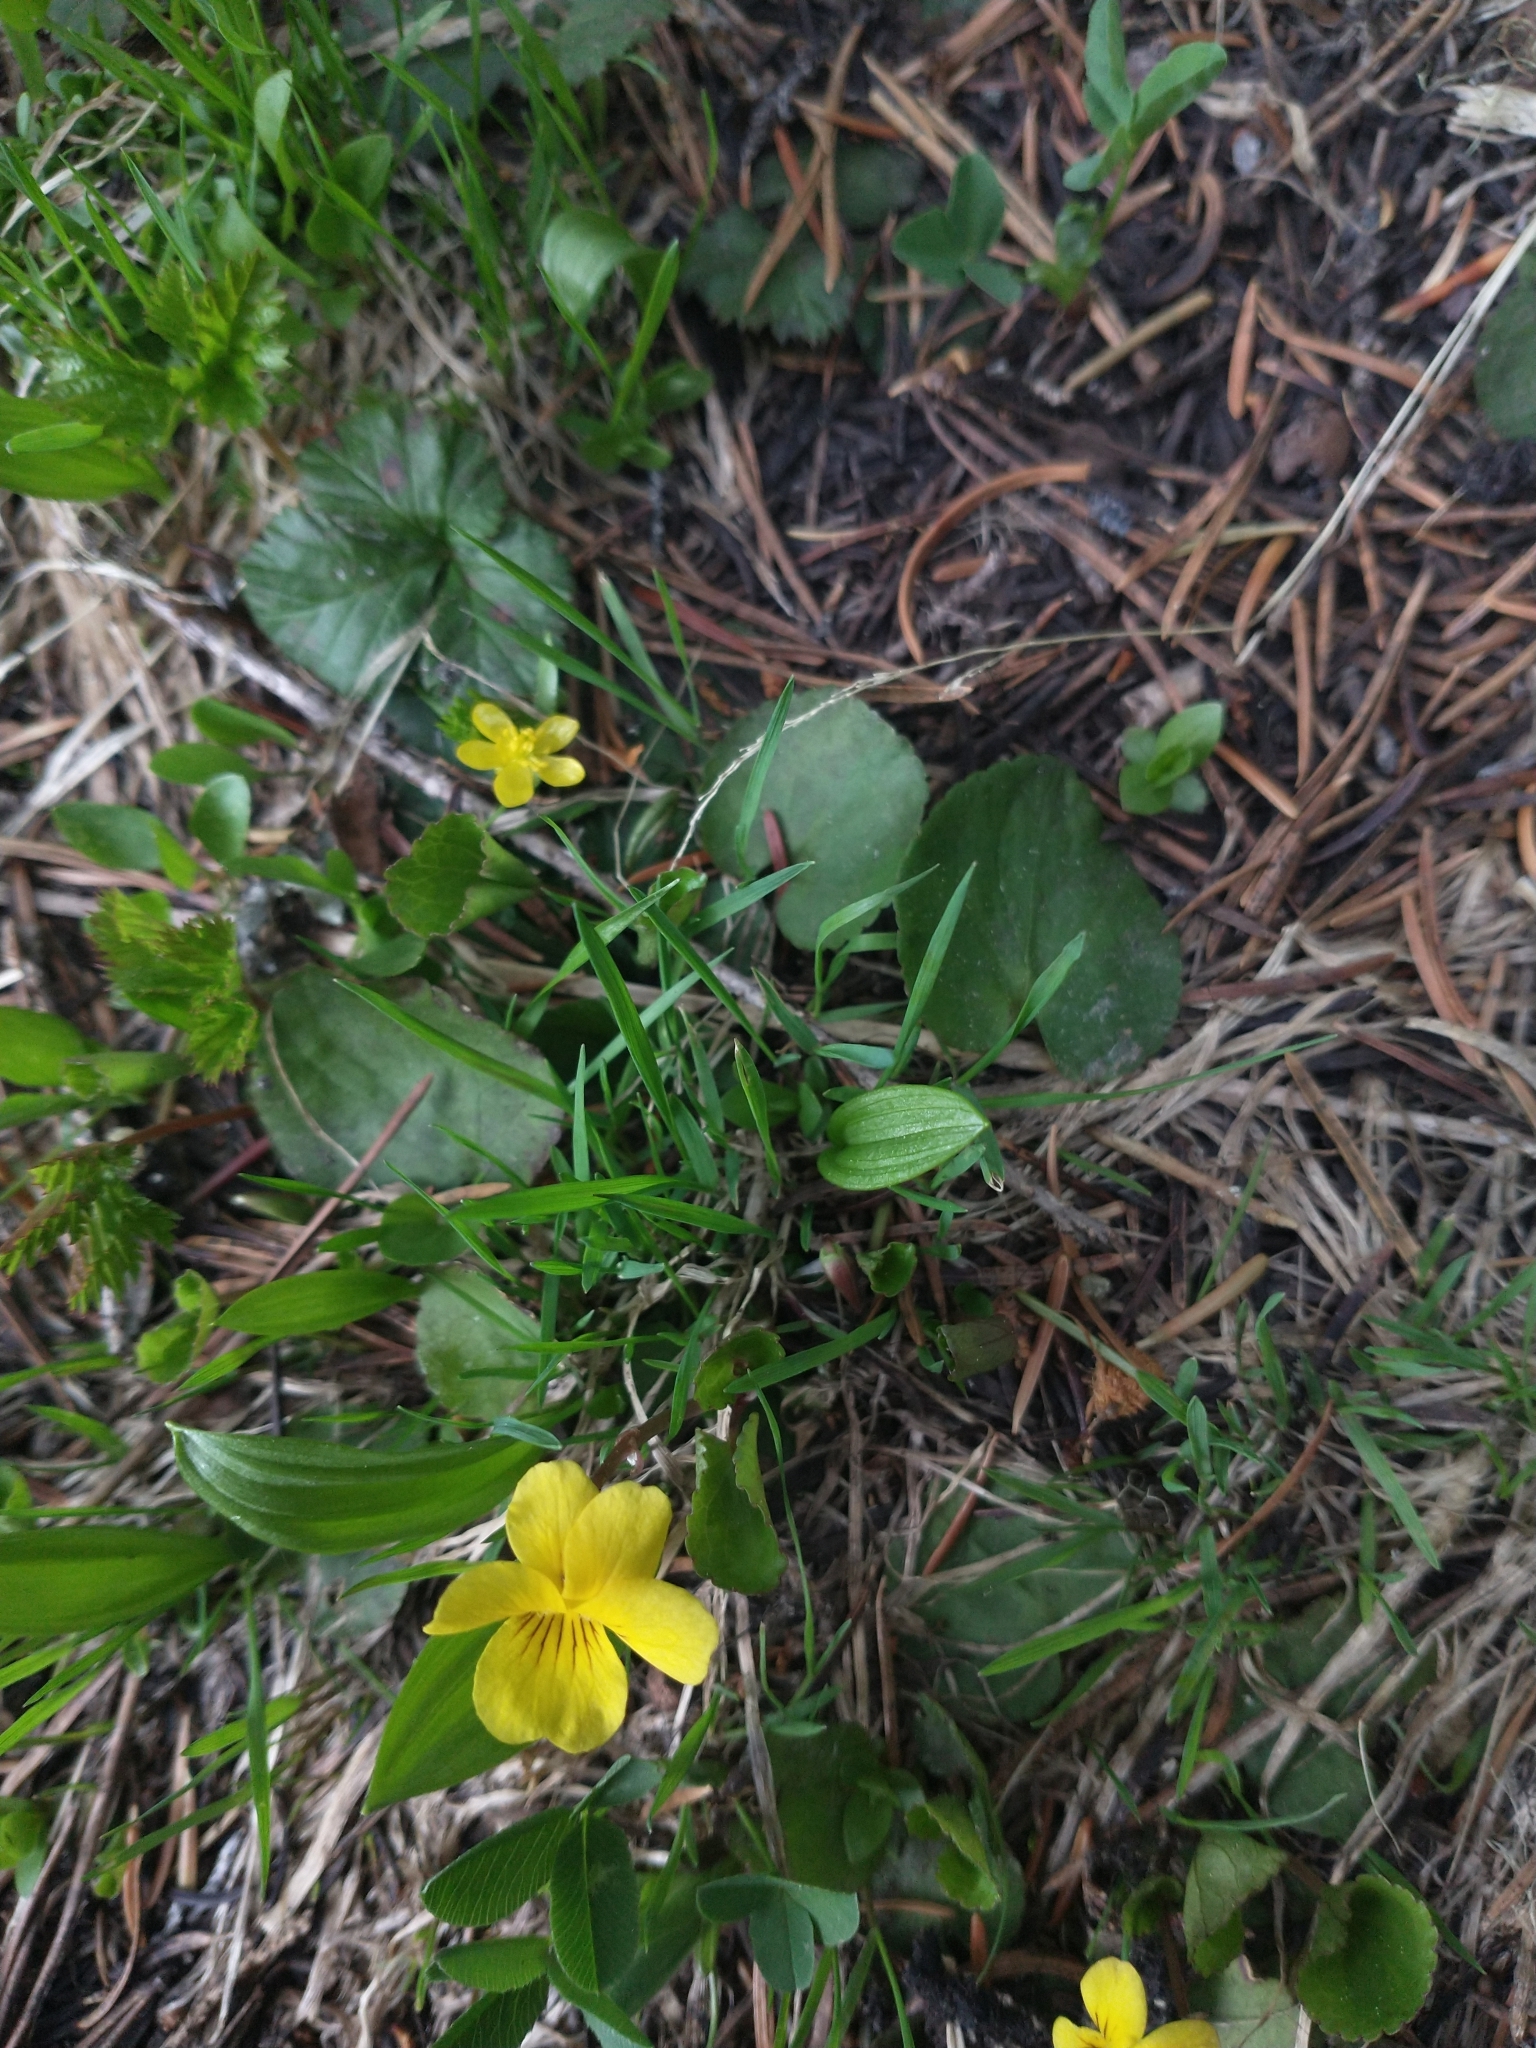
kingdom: Plantae
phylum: Tracheophyta
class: Magnoliopsida
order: Malpighiales
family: Violaceae
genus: Viola
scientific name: Viola orbiculata
